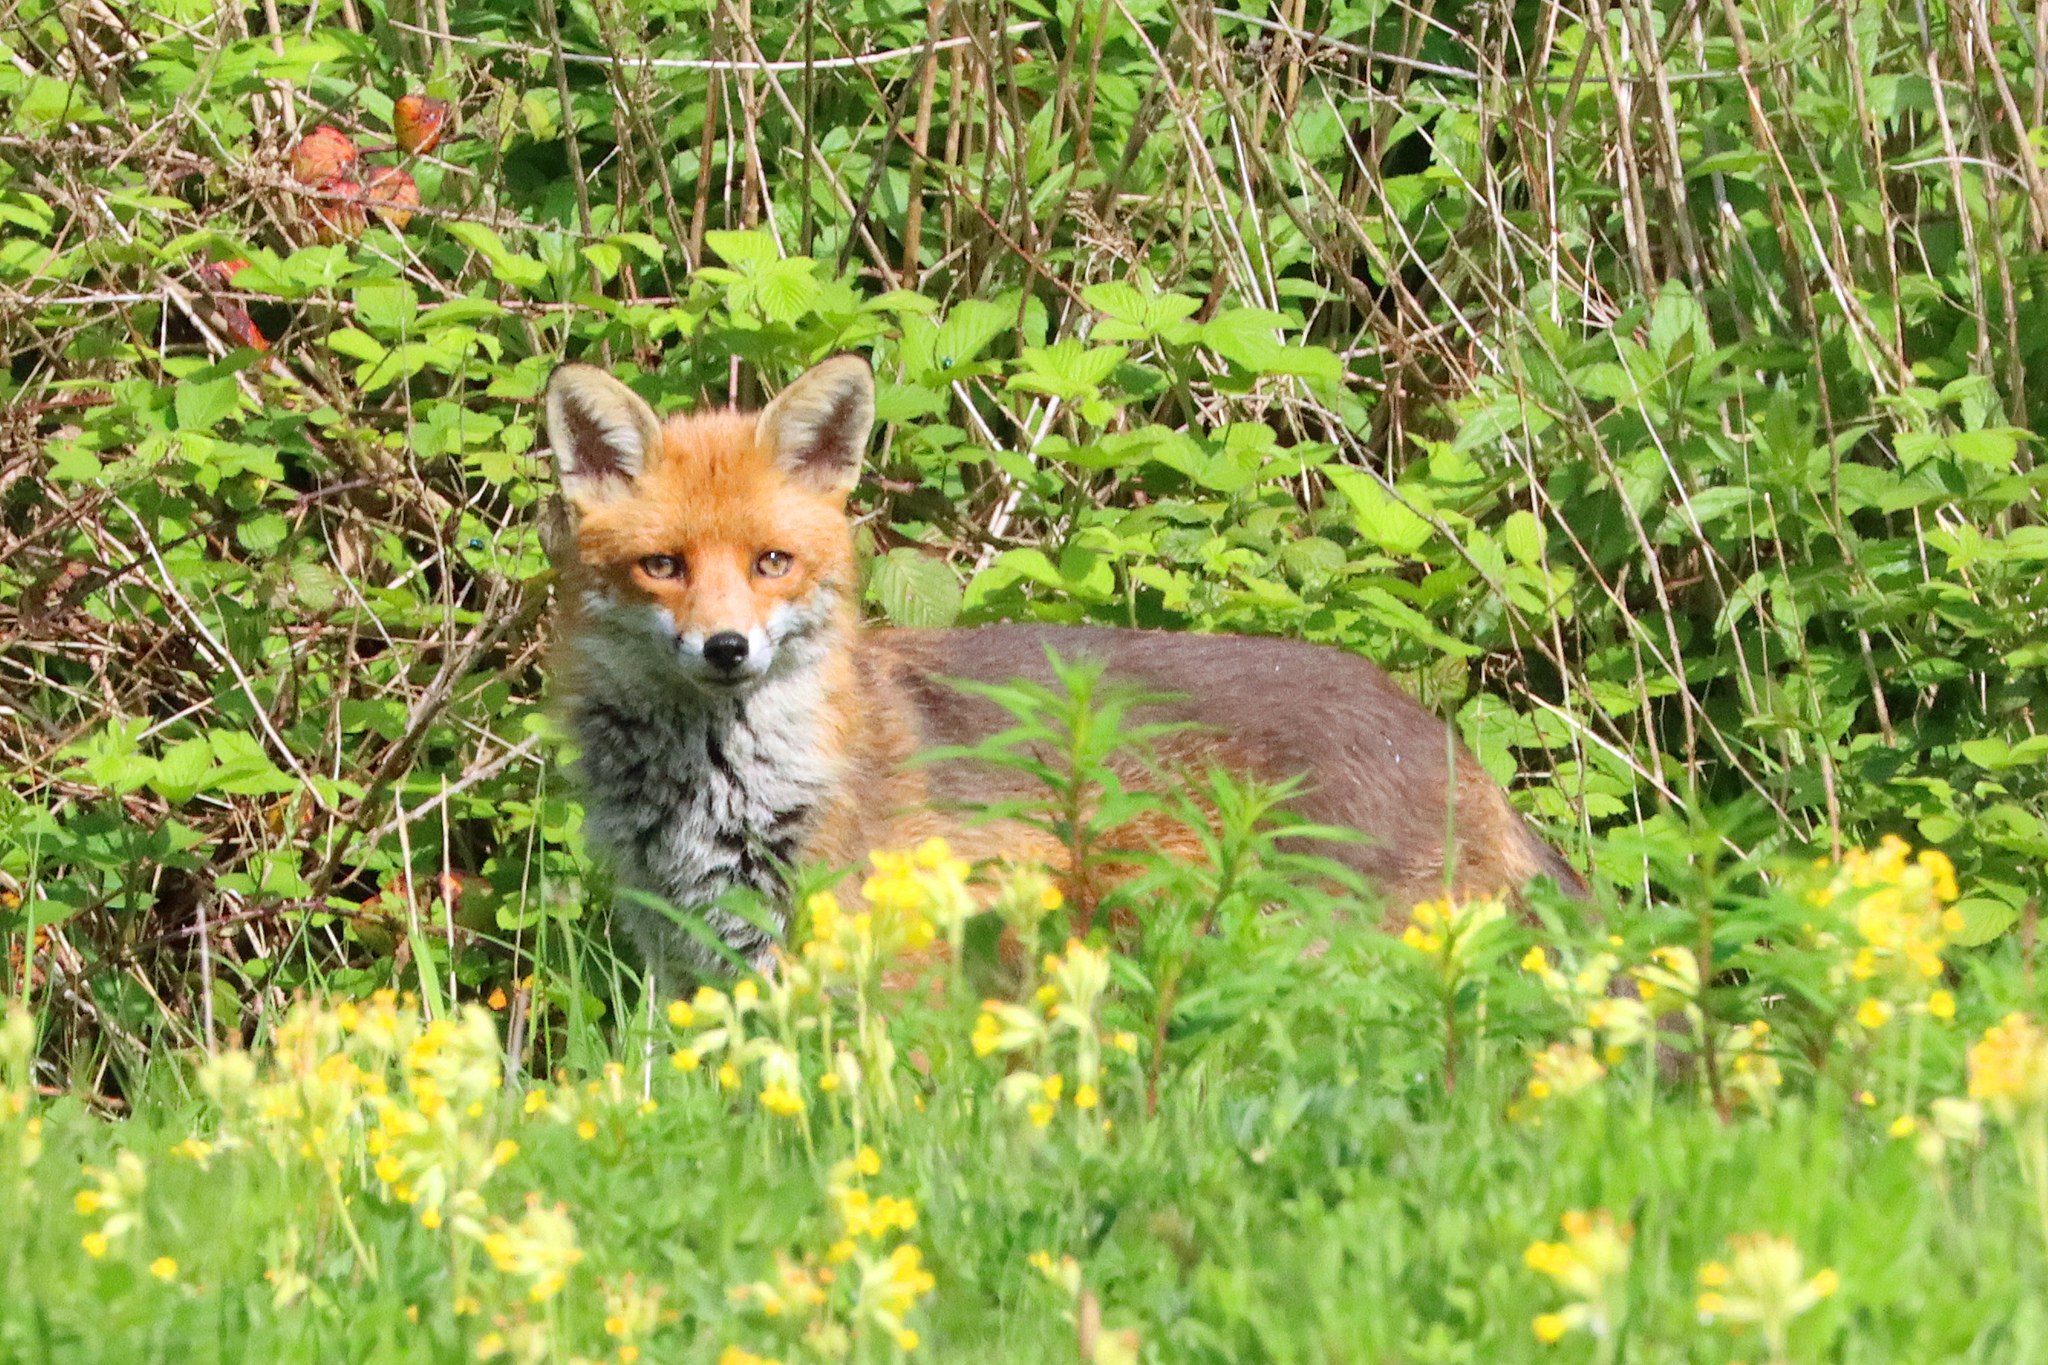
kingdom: Animalia
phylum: Chordata
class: Mammalia
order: Carnivora
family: Canidae
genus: Vulpes
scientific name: Vulpes vulpes
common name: Red fox
